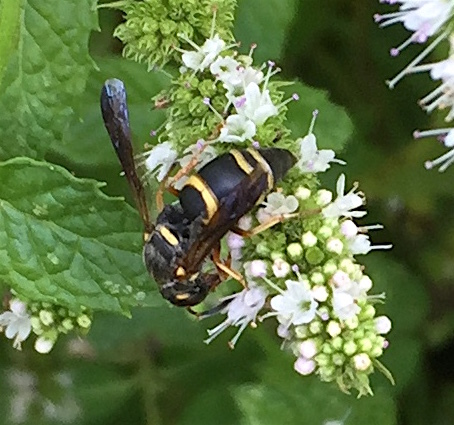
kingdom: Animalia
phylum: Arthropoda
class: Insecta
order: Hymenoptera
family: Eumenidae
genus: Euodynerus
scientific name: Euodynerus hidalgo
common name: Wasp
